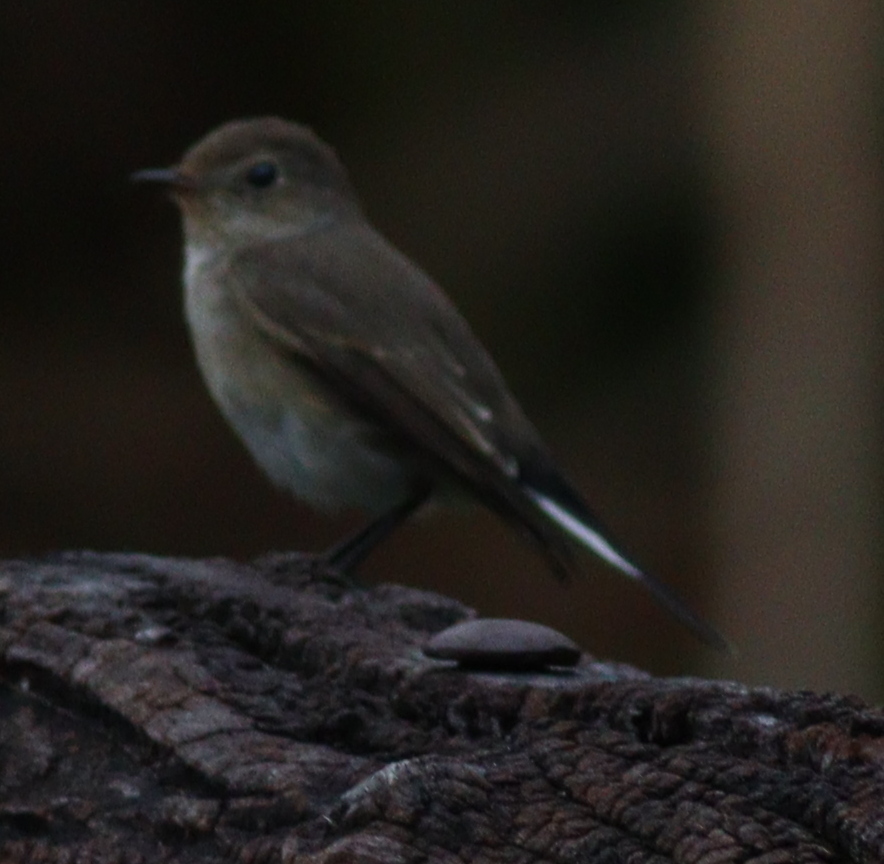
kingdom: Animalia
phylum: Chordata
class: Aves
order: Passeriformes
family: Muscicapidae
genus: Ficedula
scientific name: Ficedula albicilla
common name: Taiga flycatcher
